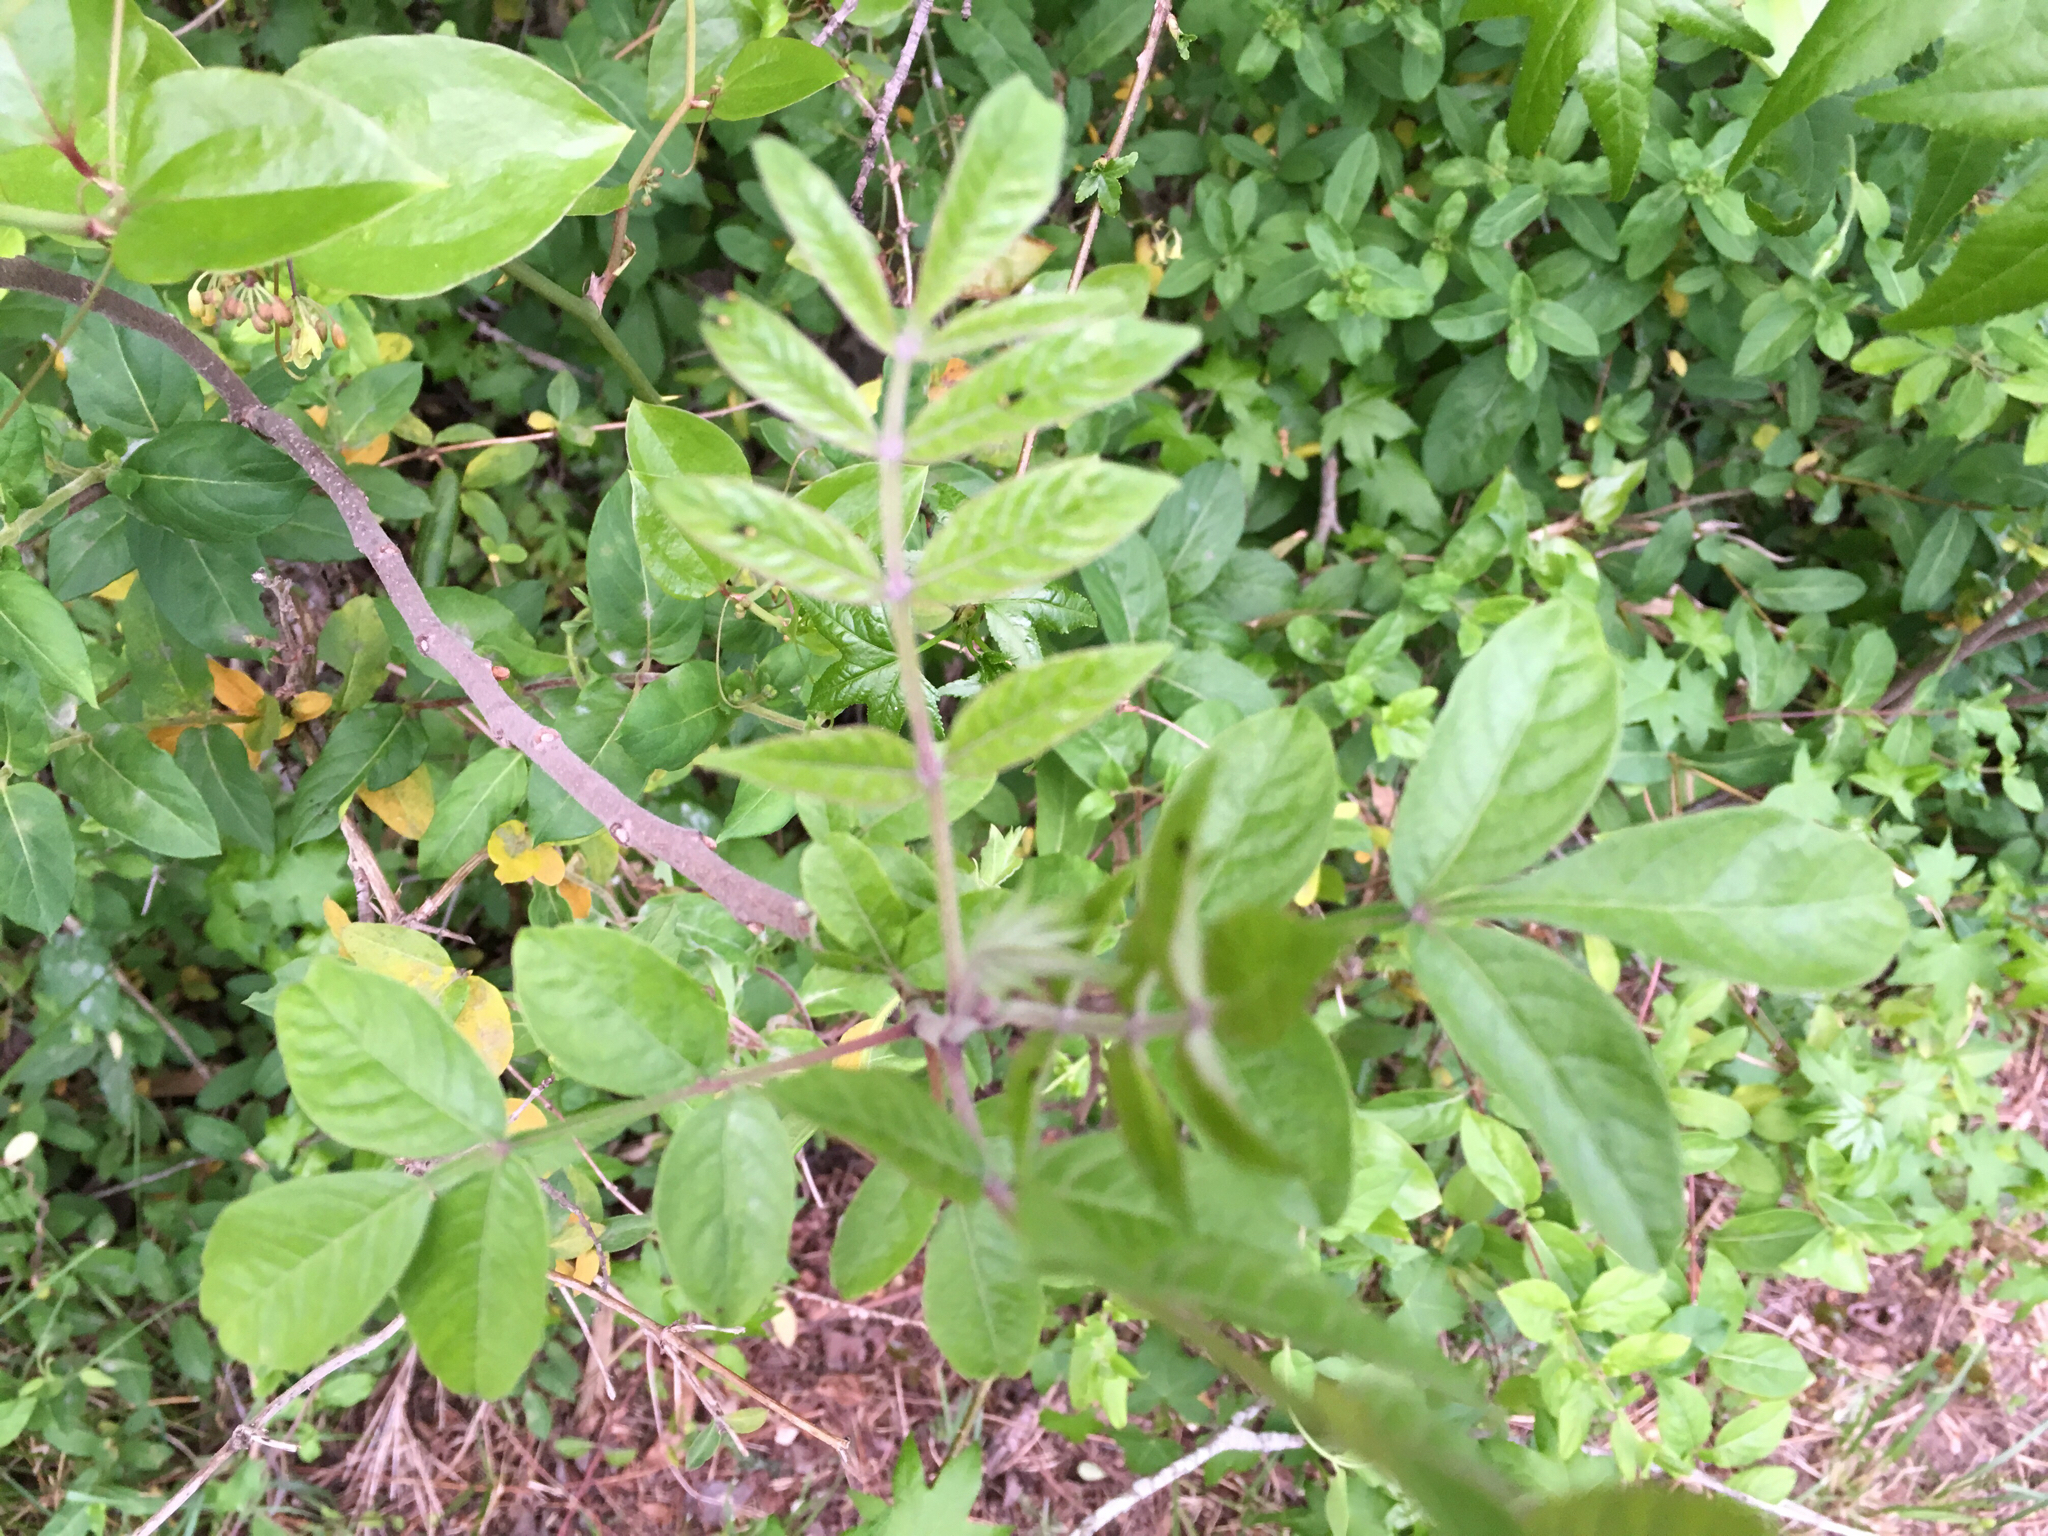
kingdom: Plantae
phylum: Tracheophyta
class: Magnoliopsida
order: Sapindales
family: Anacardiaceae
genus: Rhus
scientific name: Rhus copallina
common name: Shining sumac
